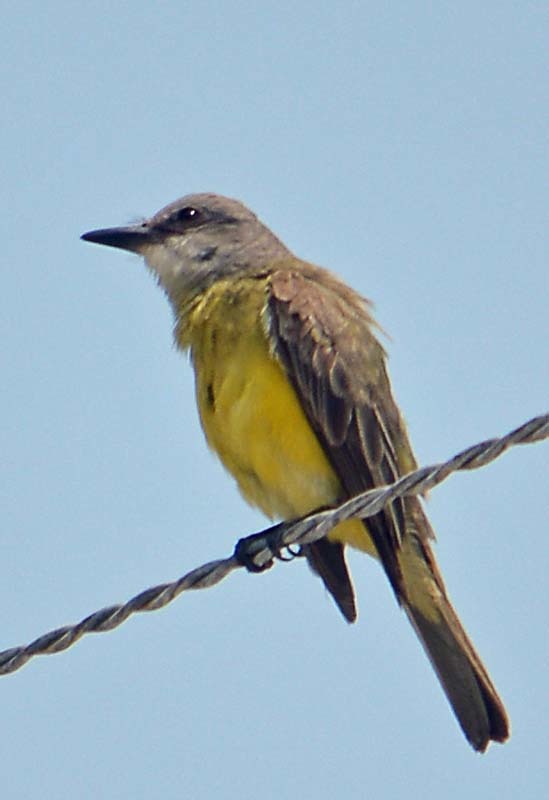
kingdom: Animalia
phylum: Chordata
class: Aves
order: Passeriformes
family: Tyrannidae
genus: Tyrannus
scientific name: Tyrannus melancholicus
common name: Tropical kingbird
